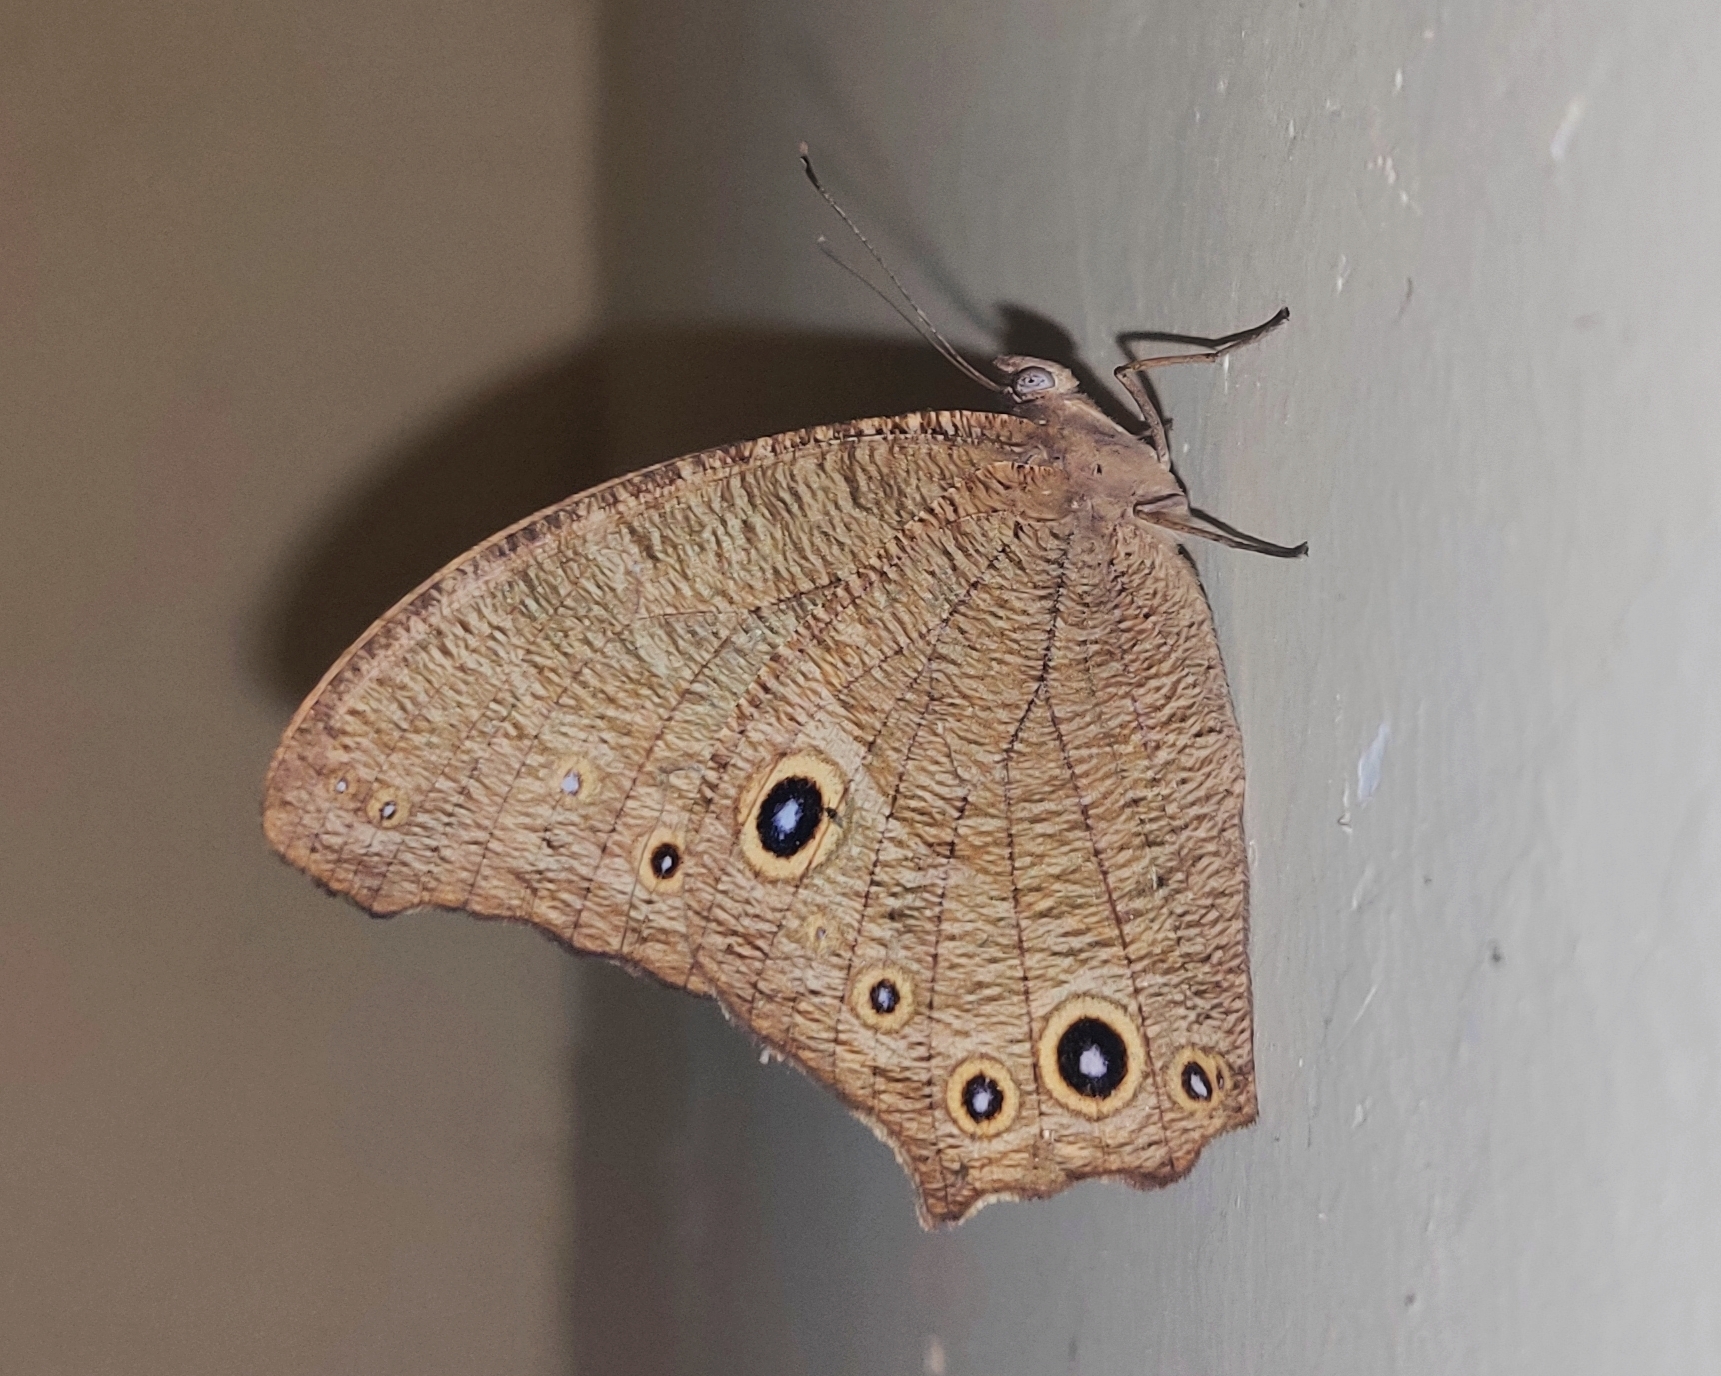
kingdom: Animalia
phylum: Arthropoda
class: Insecta
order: Lepidoptera
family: Nymphalidae
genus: Melanitis
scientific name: Melanitis leda
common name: Twilight brown
